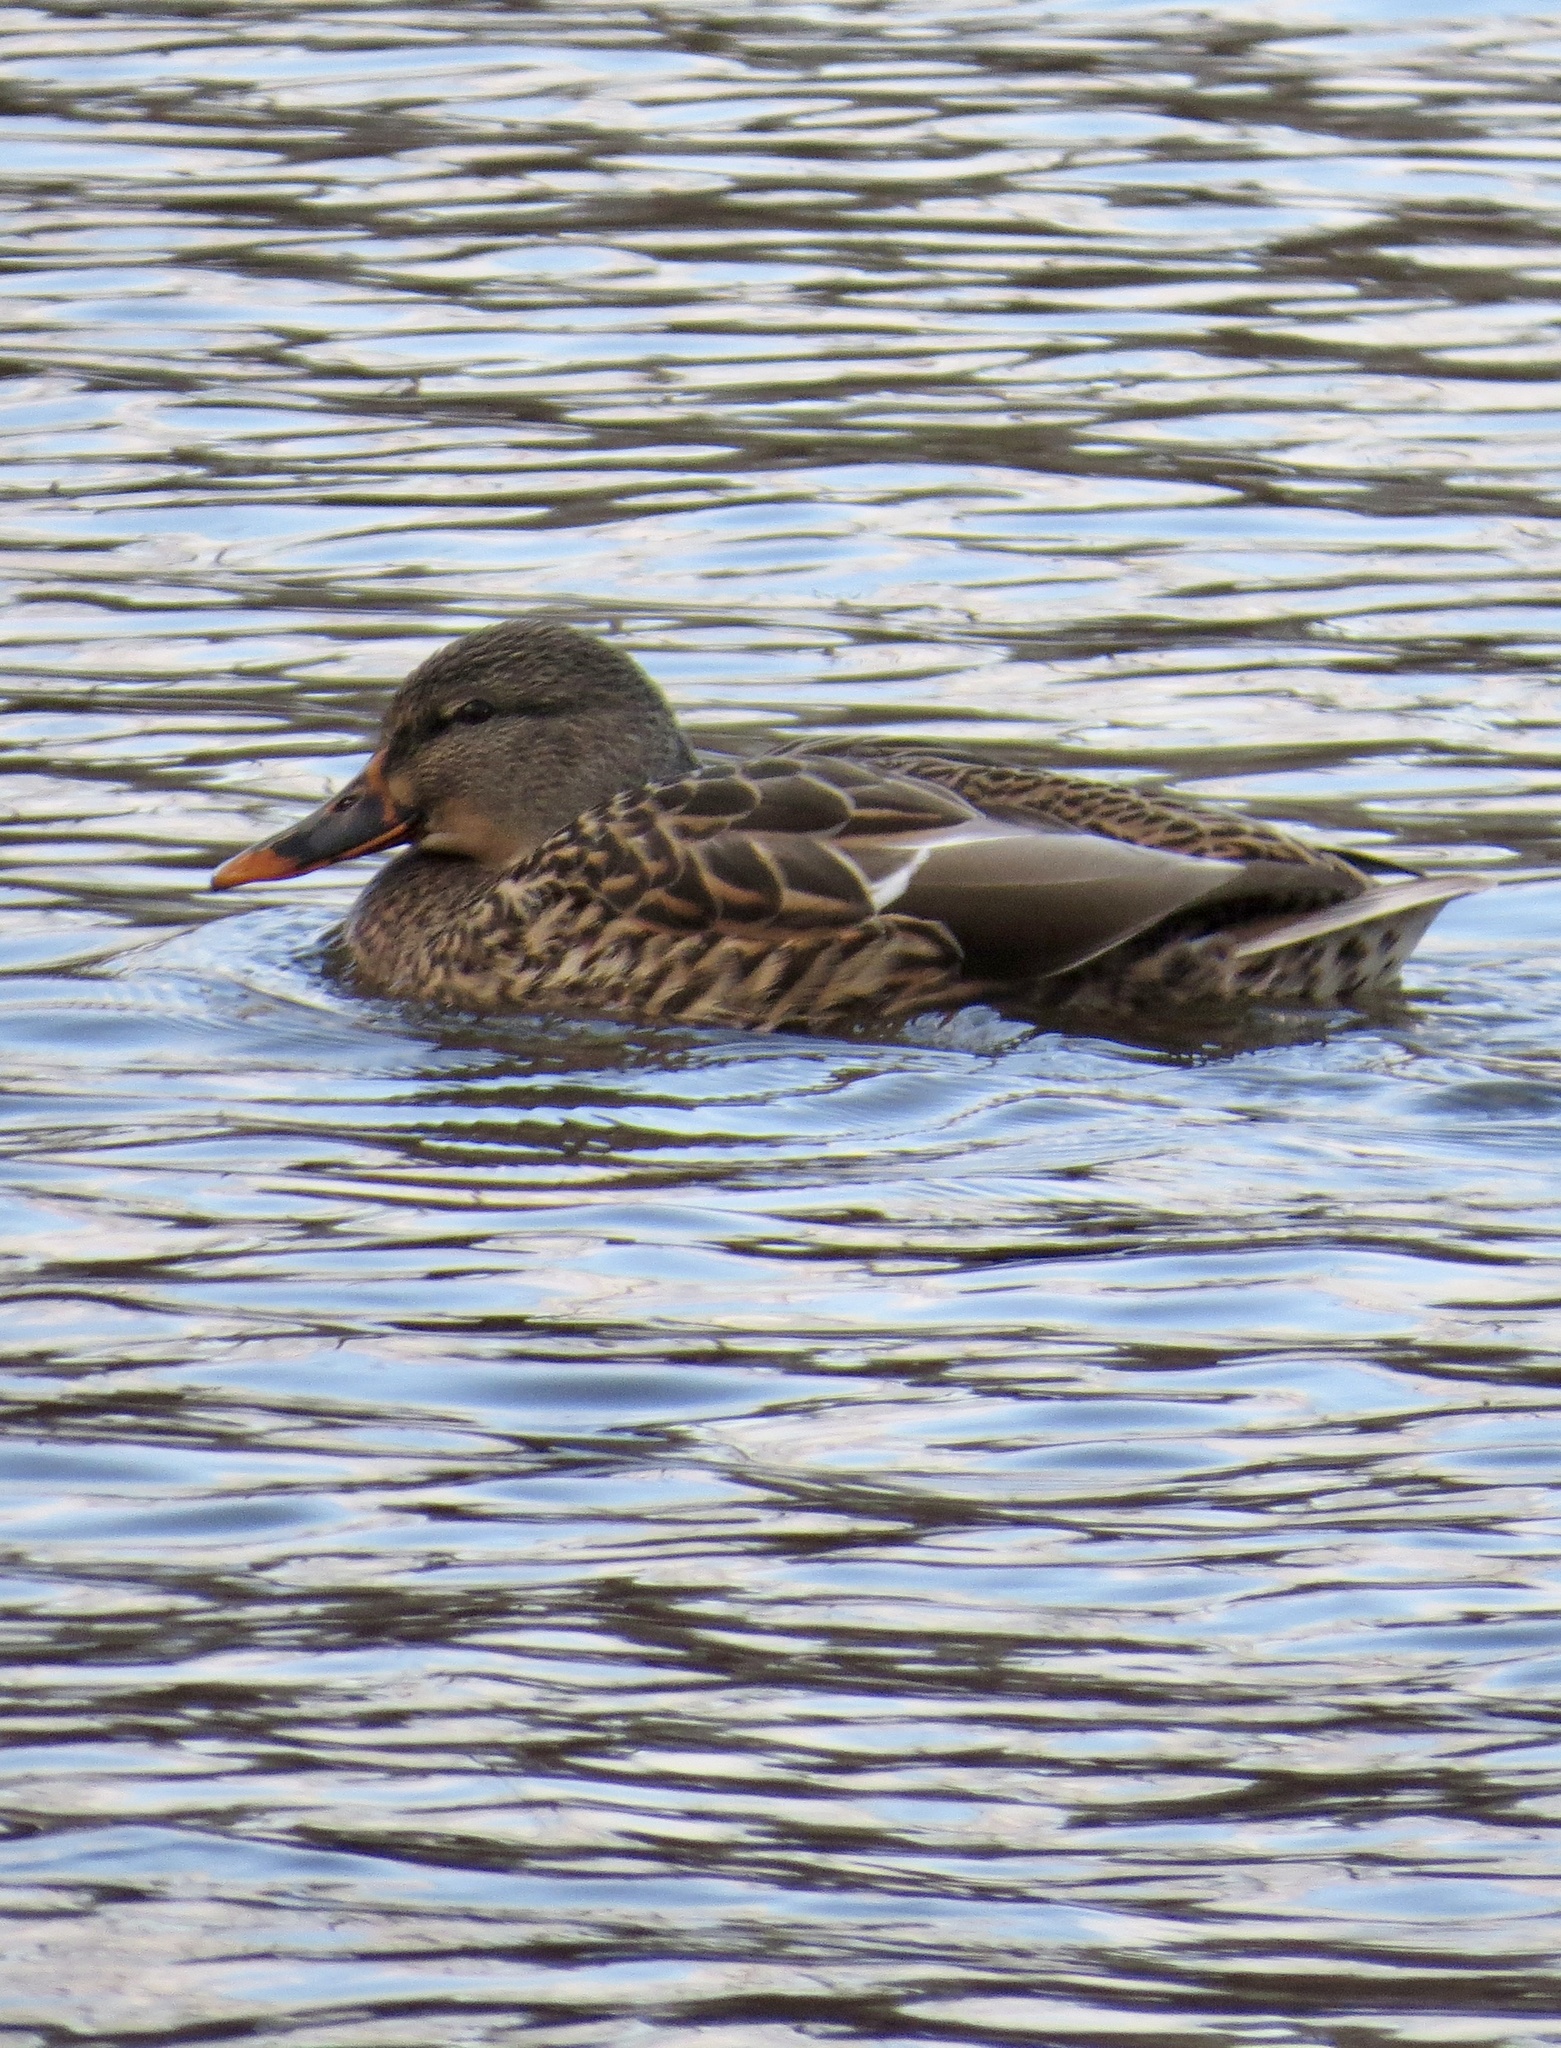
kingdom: Animalia
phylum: Chordata
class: Aves
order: Anseriformes
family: Anatidae
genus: Anas
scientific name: Anas platyrhynchos
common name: Mallard
